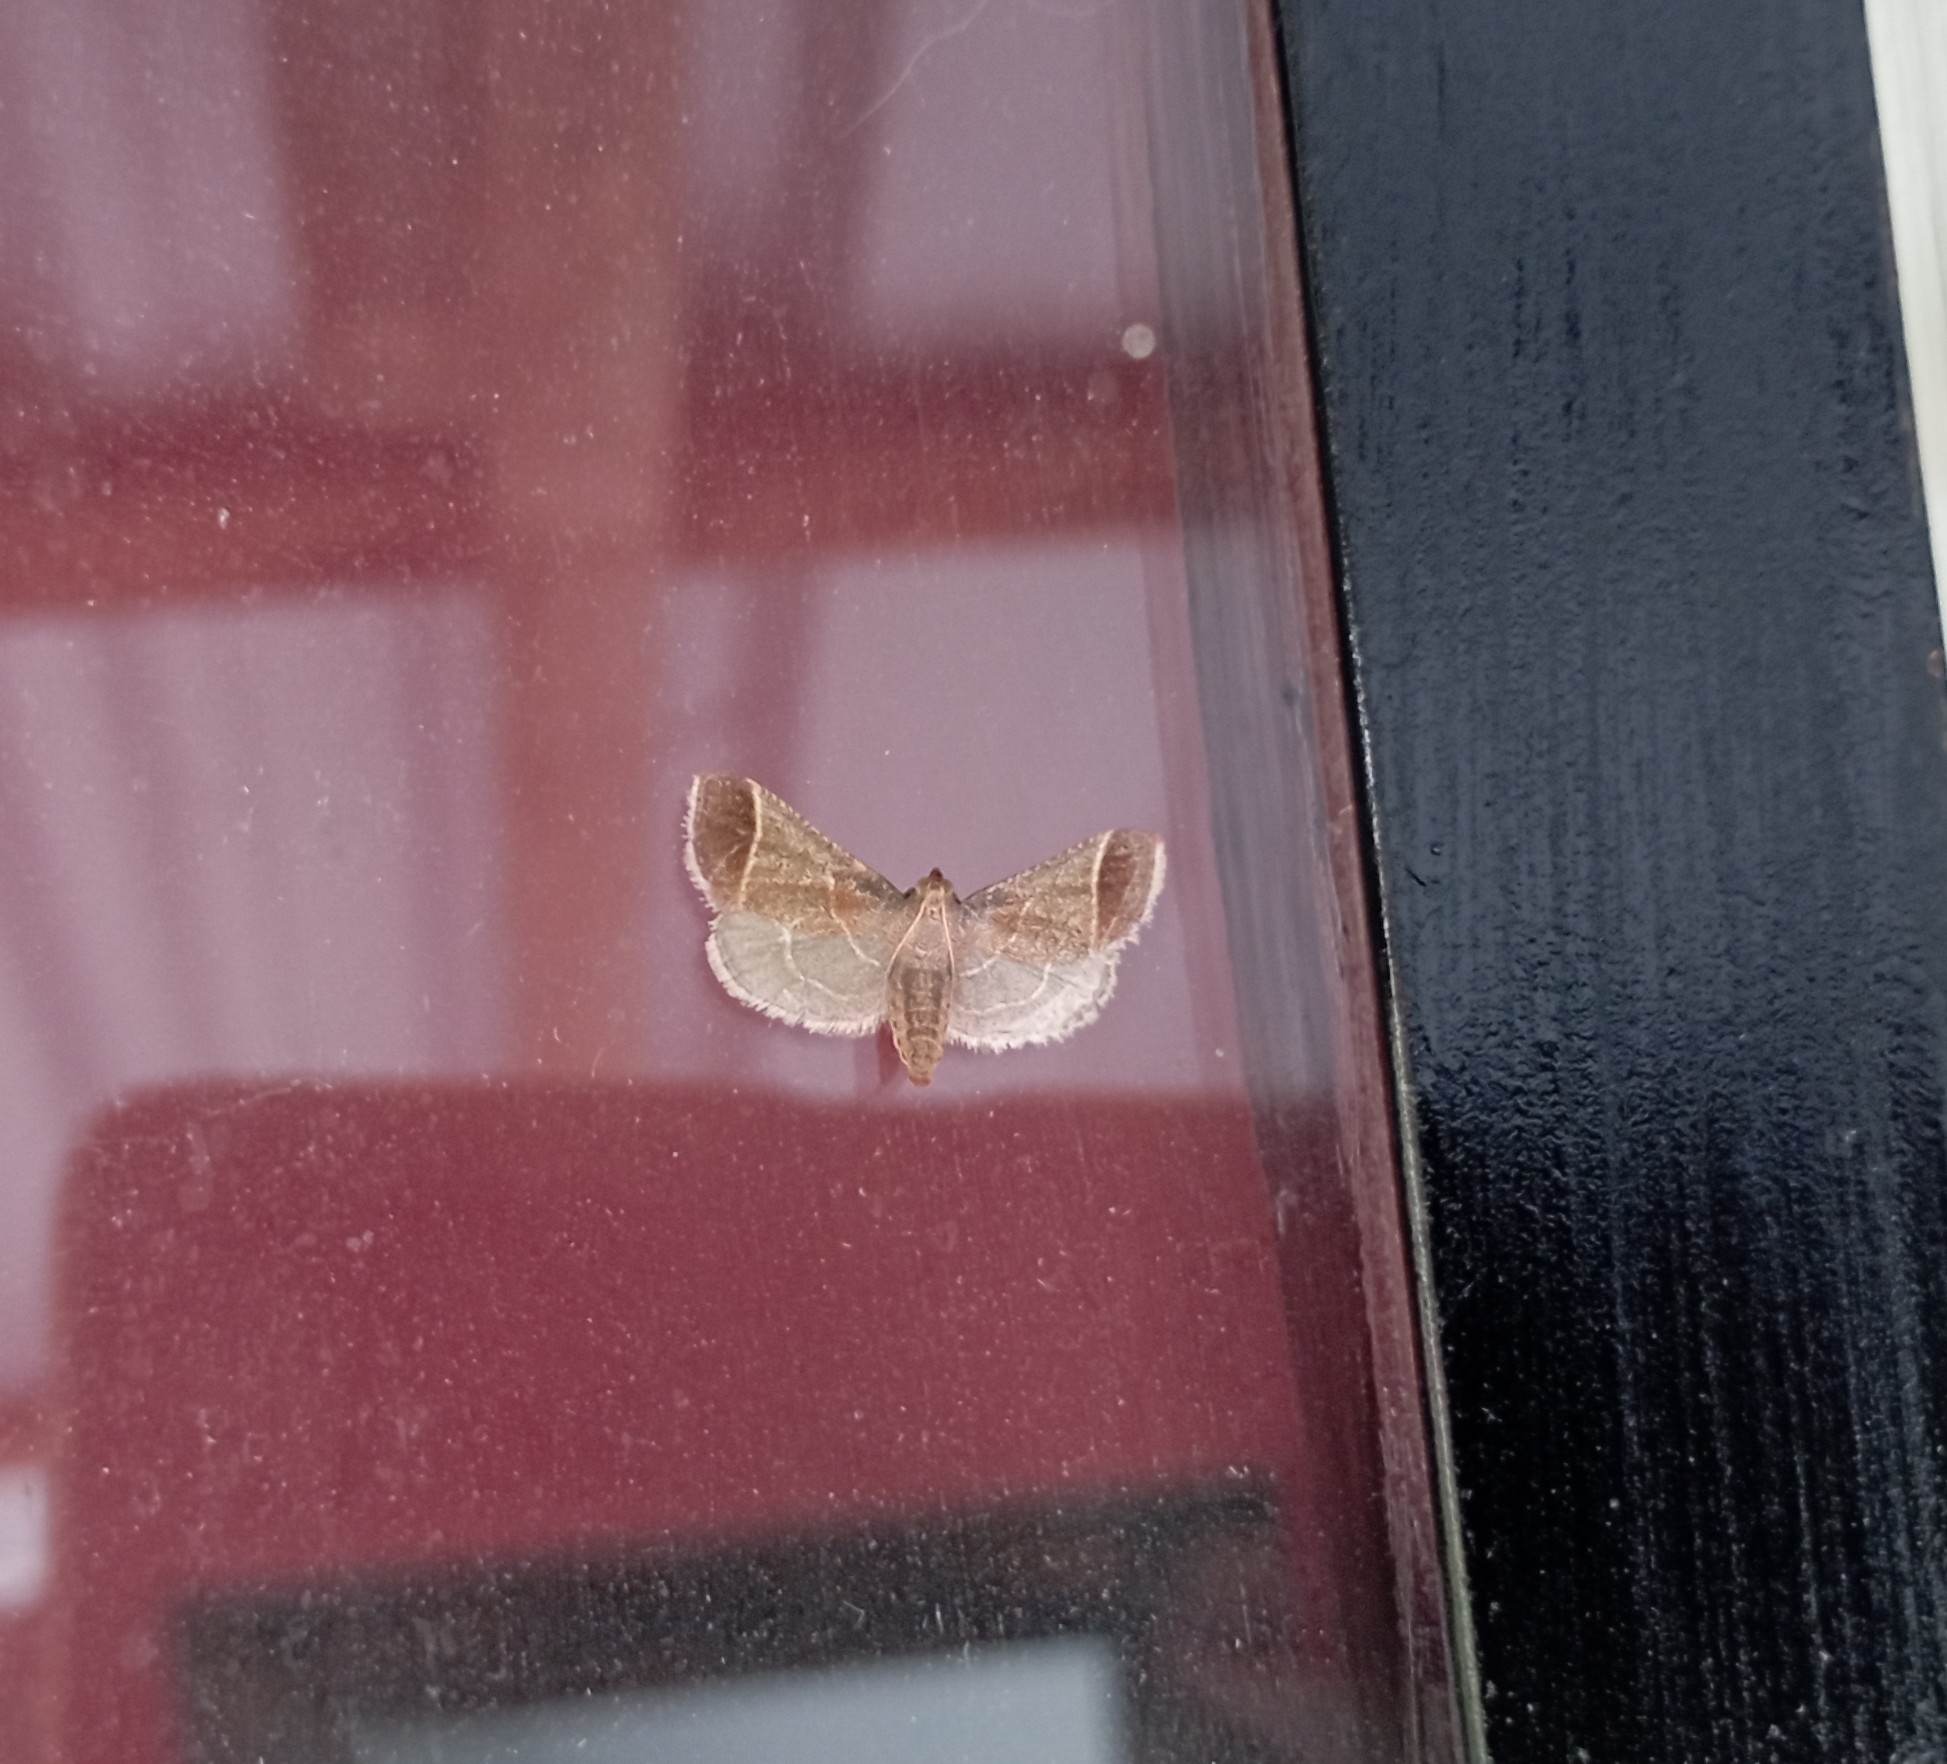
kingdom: Animalia
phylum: Arthropoda
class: Insecta
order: Lepidoptera
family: Pyralidae
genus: Pyralis
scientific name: Pyralis farinalis
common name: Meal moth
